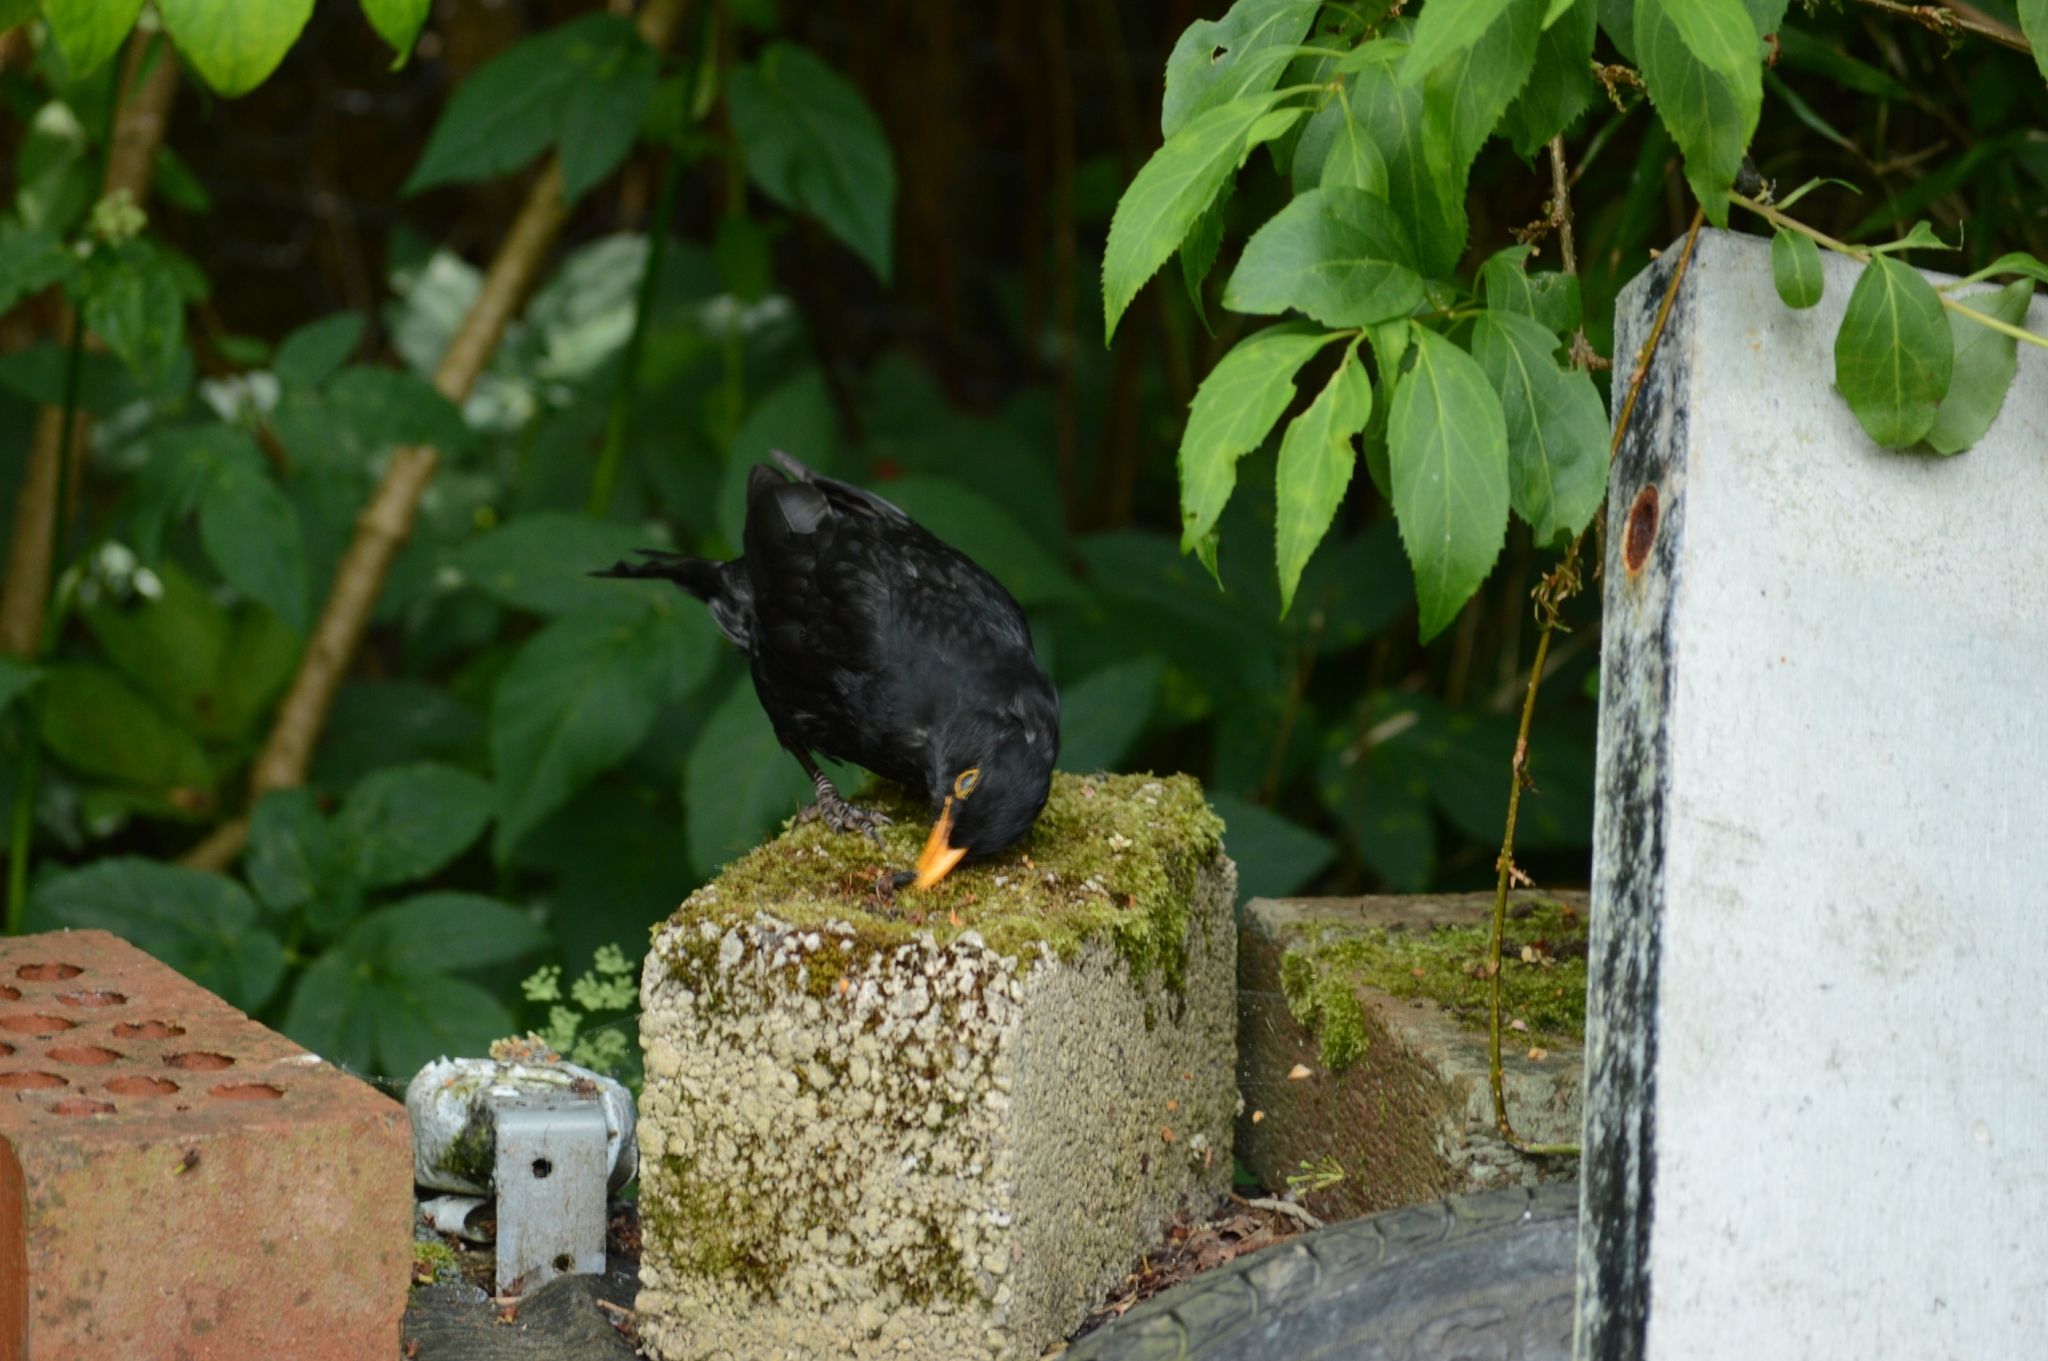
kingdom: Animalia
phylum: Chordata
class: Aves
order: Passeriformes
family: Turdidae
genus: Turdus
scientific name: Turdus merula
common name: Common blackbird
